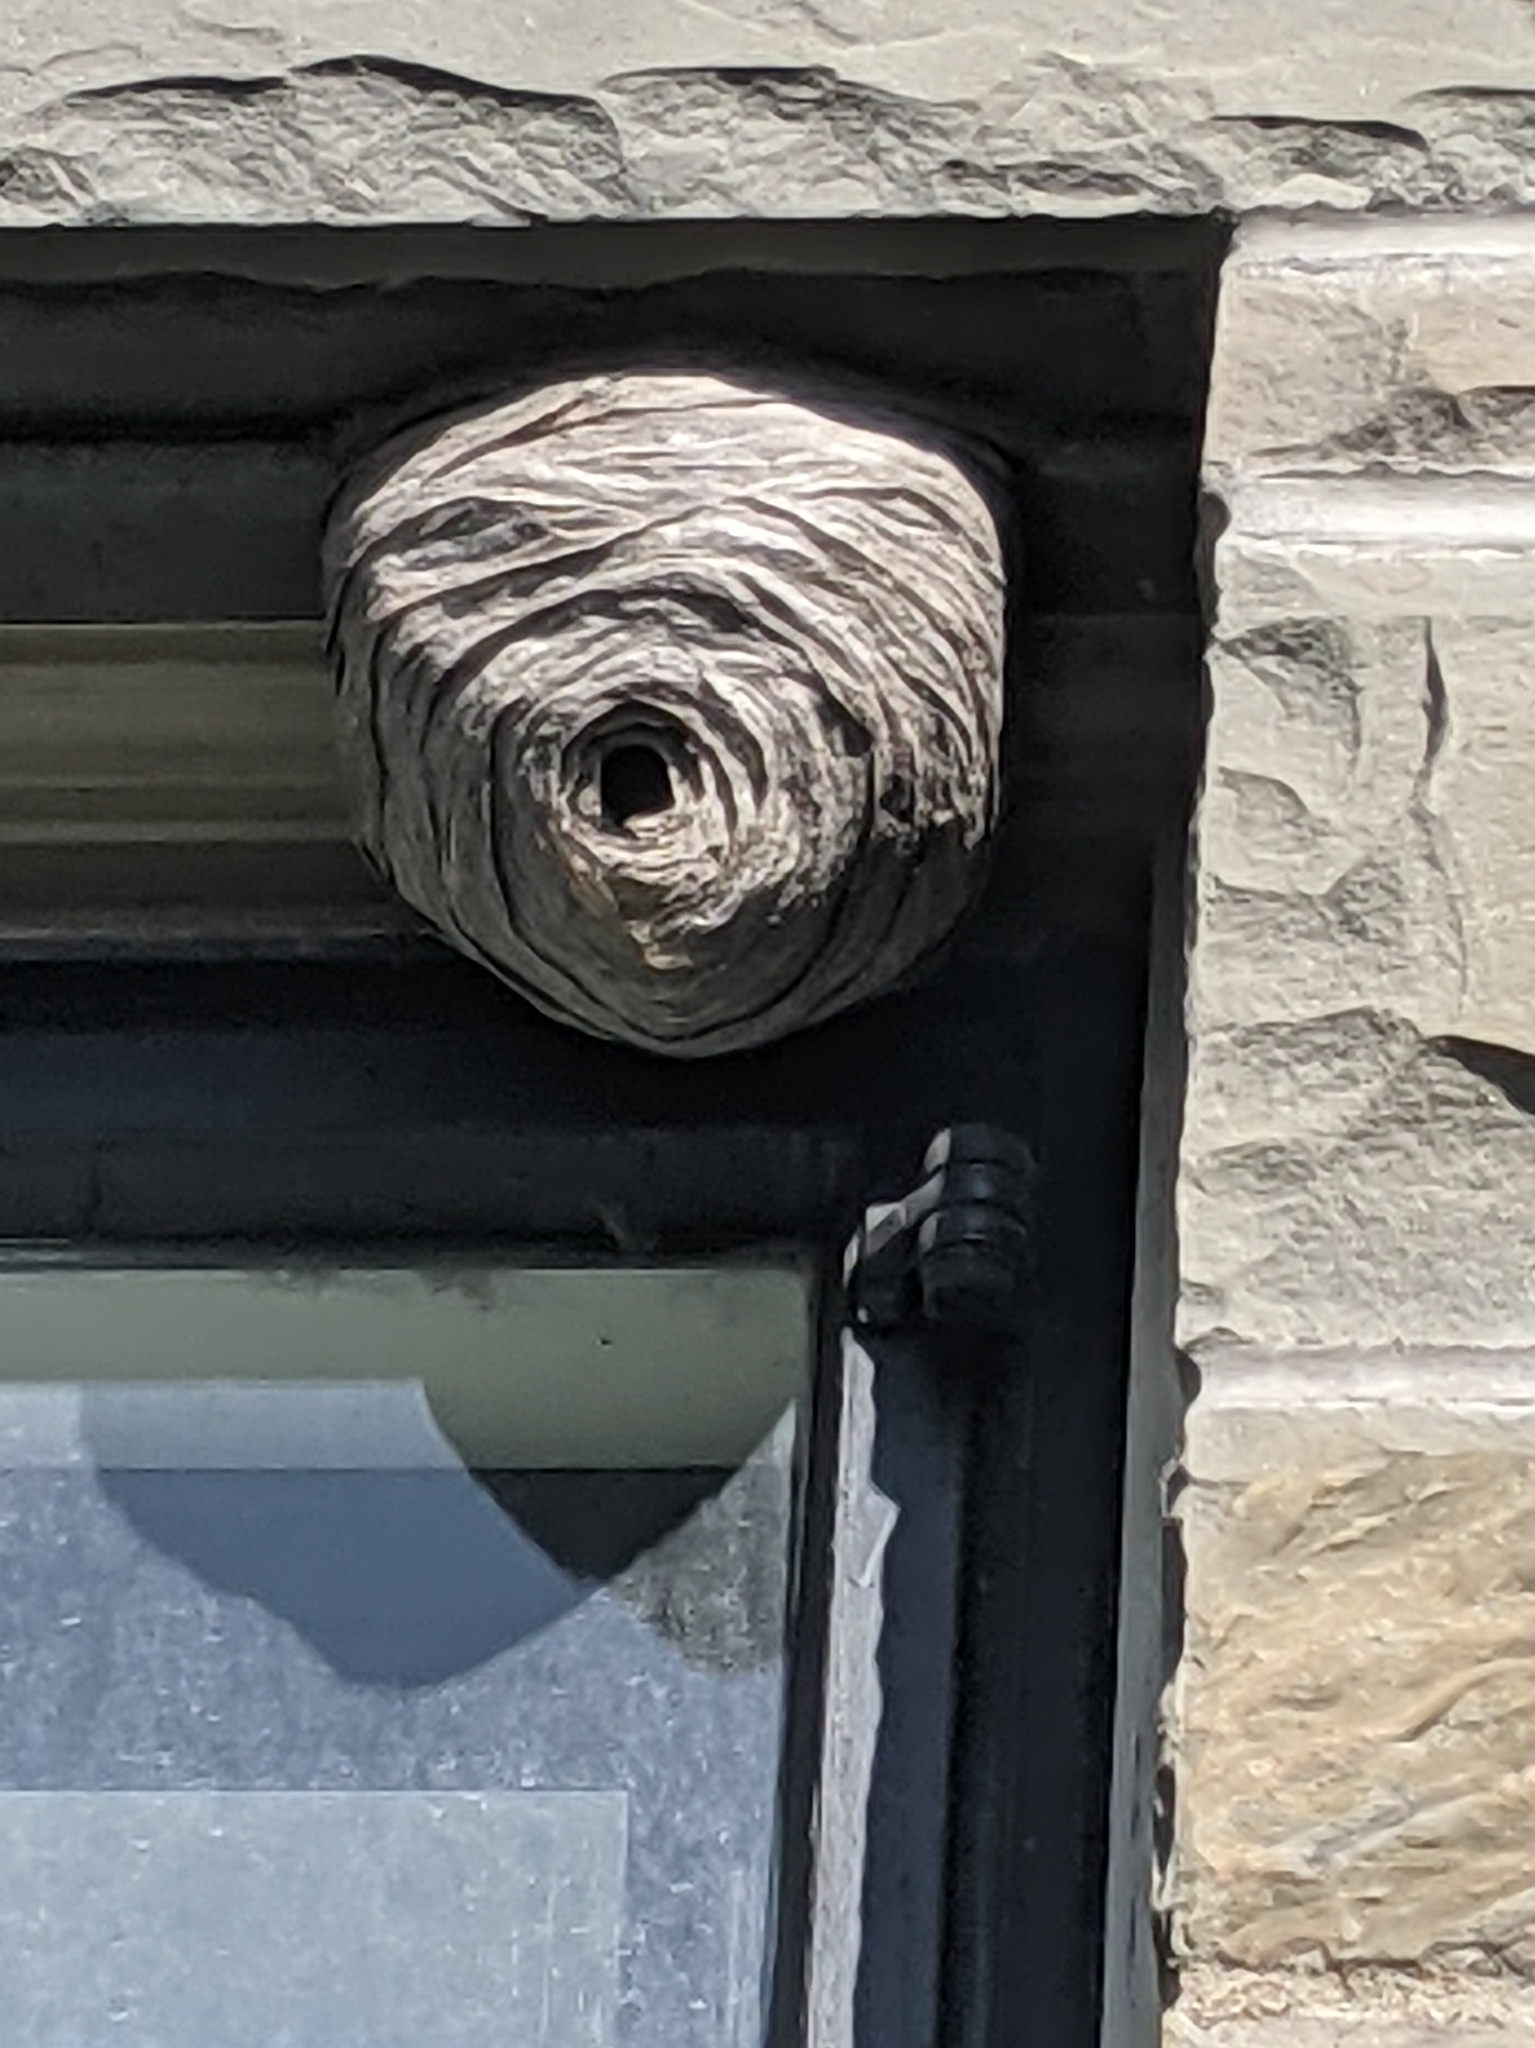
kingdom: Animalia
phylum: Arthropoda
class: Insecta
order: Hymenoptera
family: Vespidae
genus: Dolichovespula
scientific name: Dolichovespula
